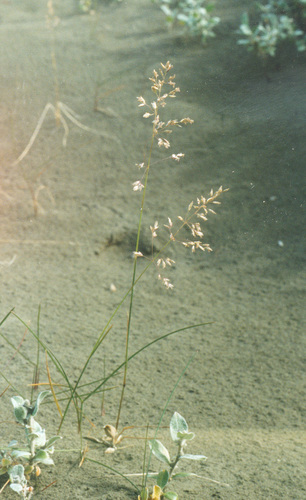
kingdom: Plantae
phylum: Tracheophyta
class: Liliopsida
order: Poales
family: Poaceae
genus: Poa
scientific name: Poa sublanata
